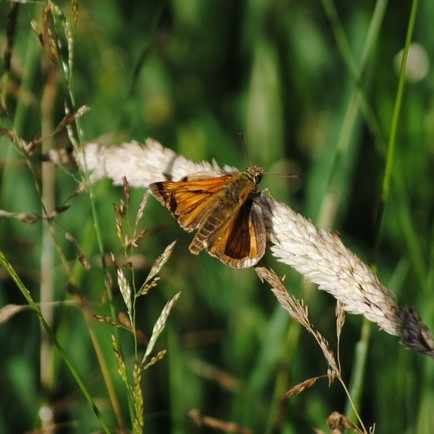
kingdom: Animalia
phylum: Arthropoda
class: Insecta
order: Lepidoptera
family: Hesperiidae
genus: Ochlodes
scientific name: Ochlodes venata
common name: Large skipper
